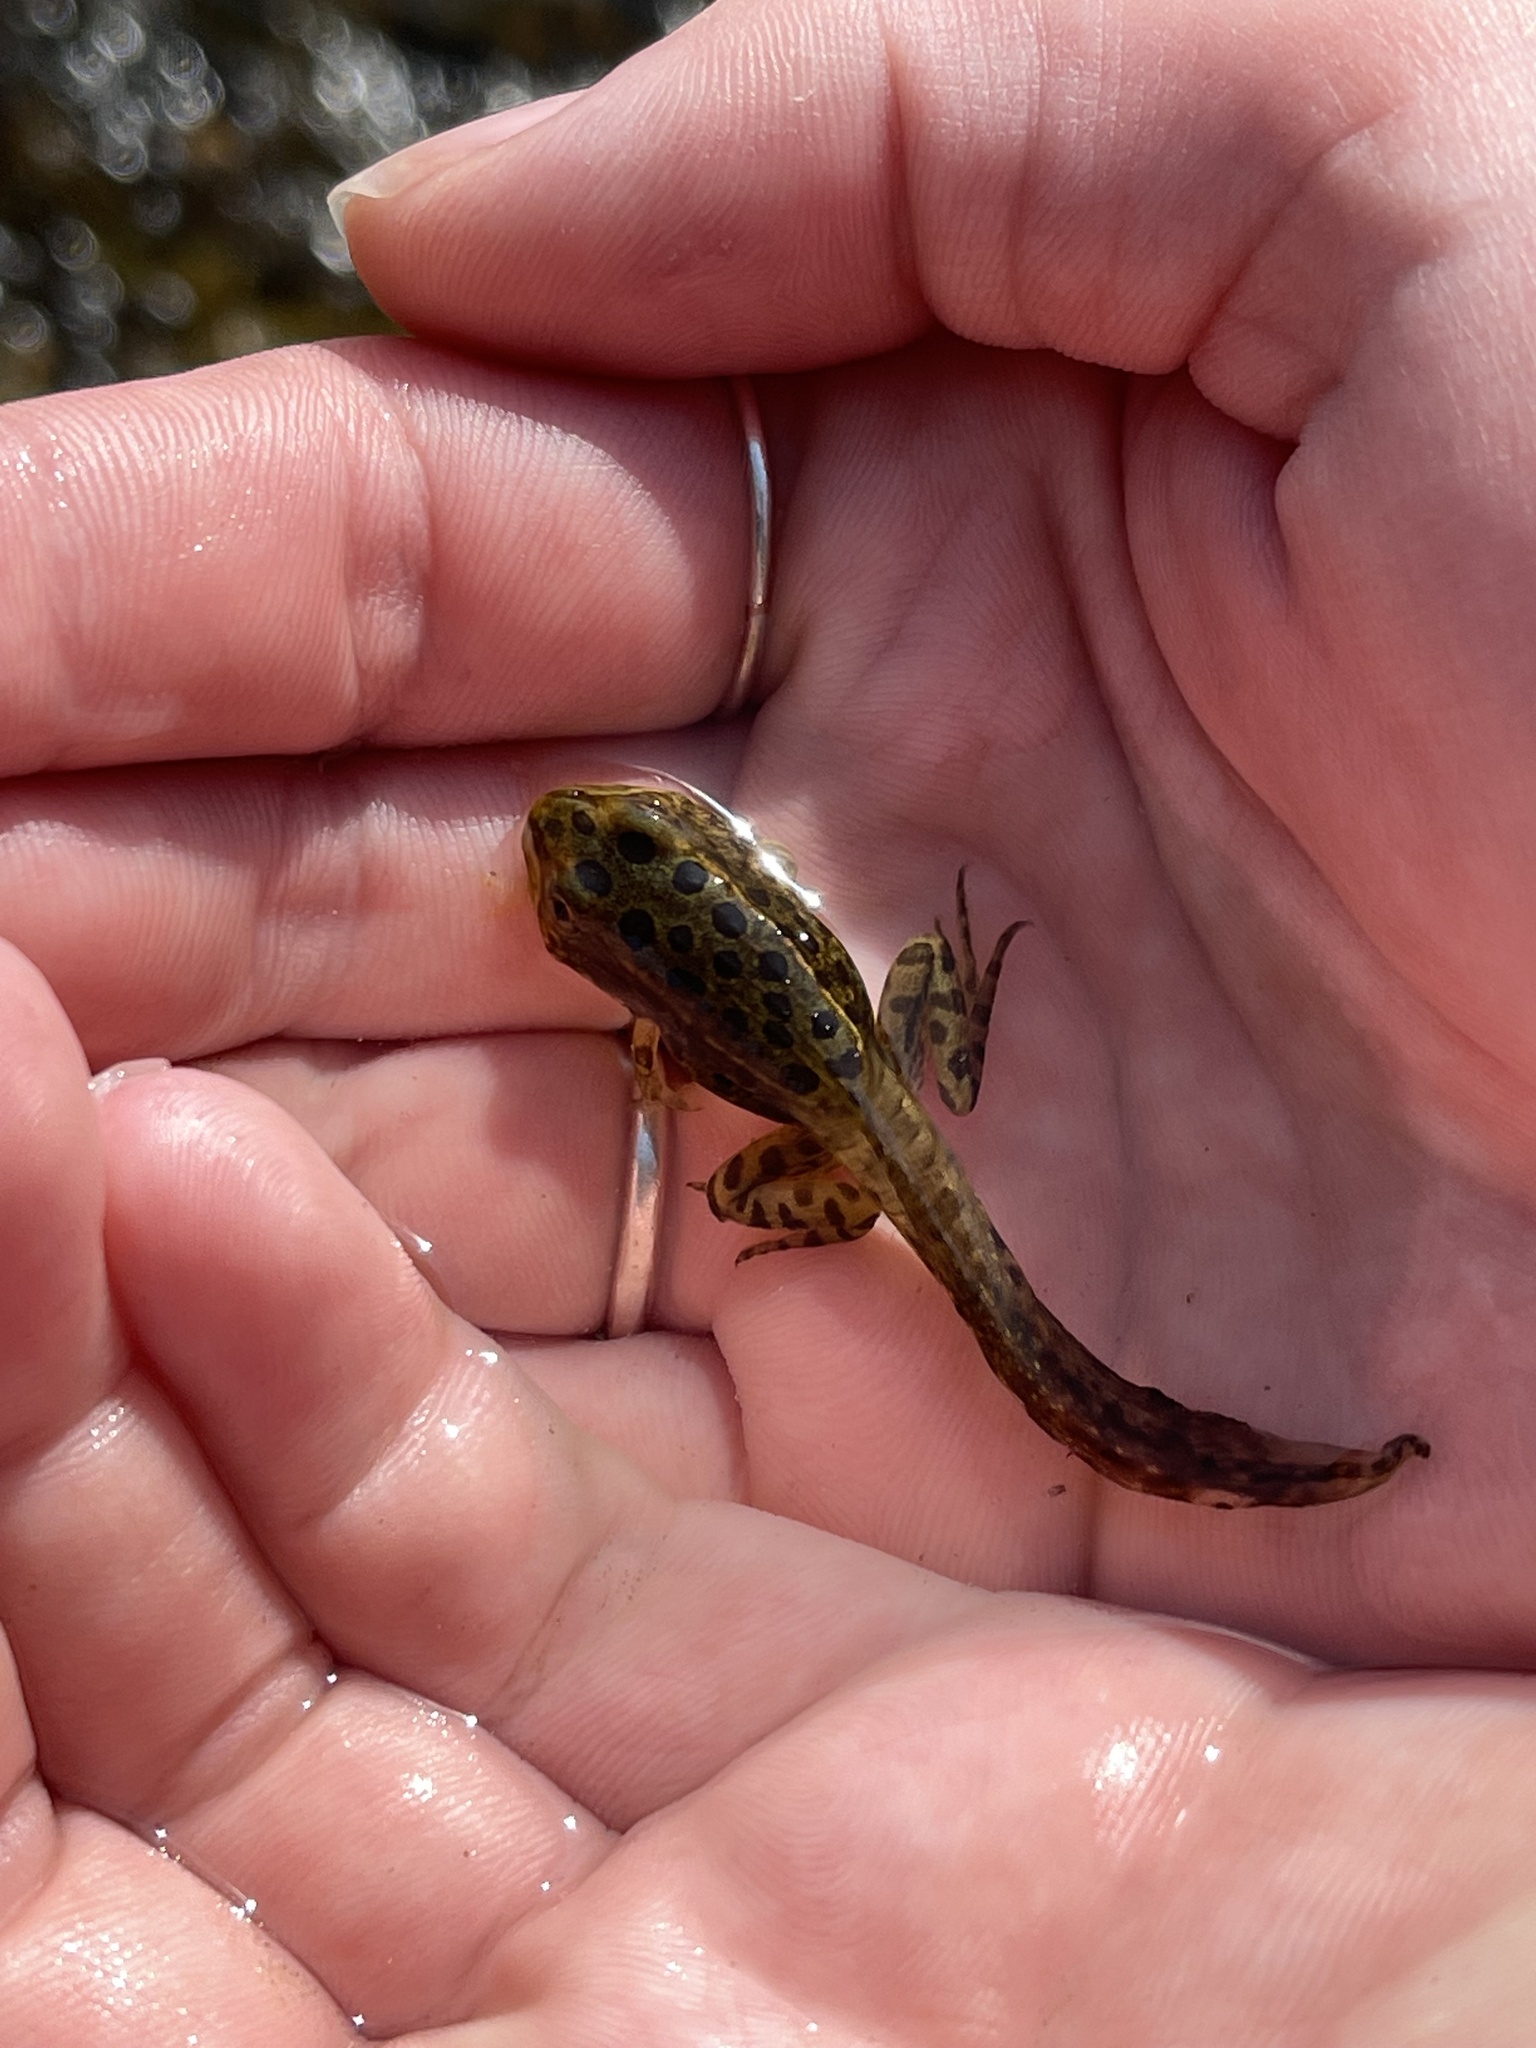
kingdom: Animalia
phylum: Chordata
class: Amphibia
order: Anura
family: Ranidae
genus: Lithobates
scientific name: Lithobates pipiens
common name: Northern leopard frog
